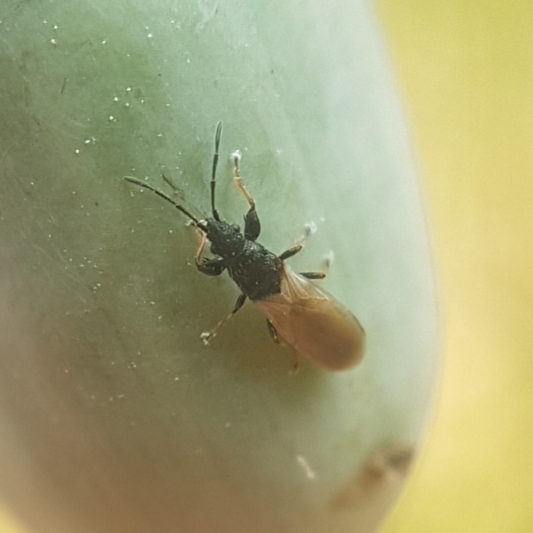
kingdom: Animalia
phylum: Arthropoda
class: Insecta
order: Hemiptera
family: Oxycarenidae
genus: Brachyplax
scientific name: Brachyplax tenuis
